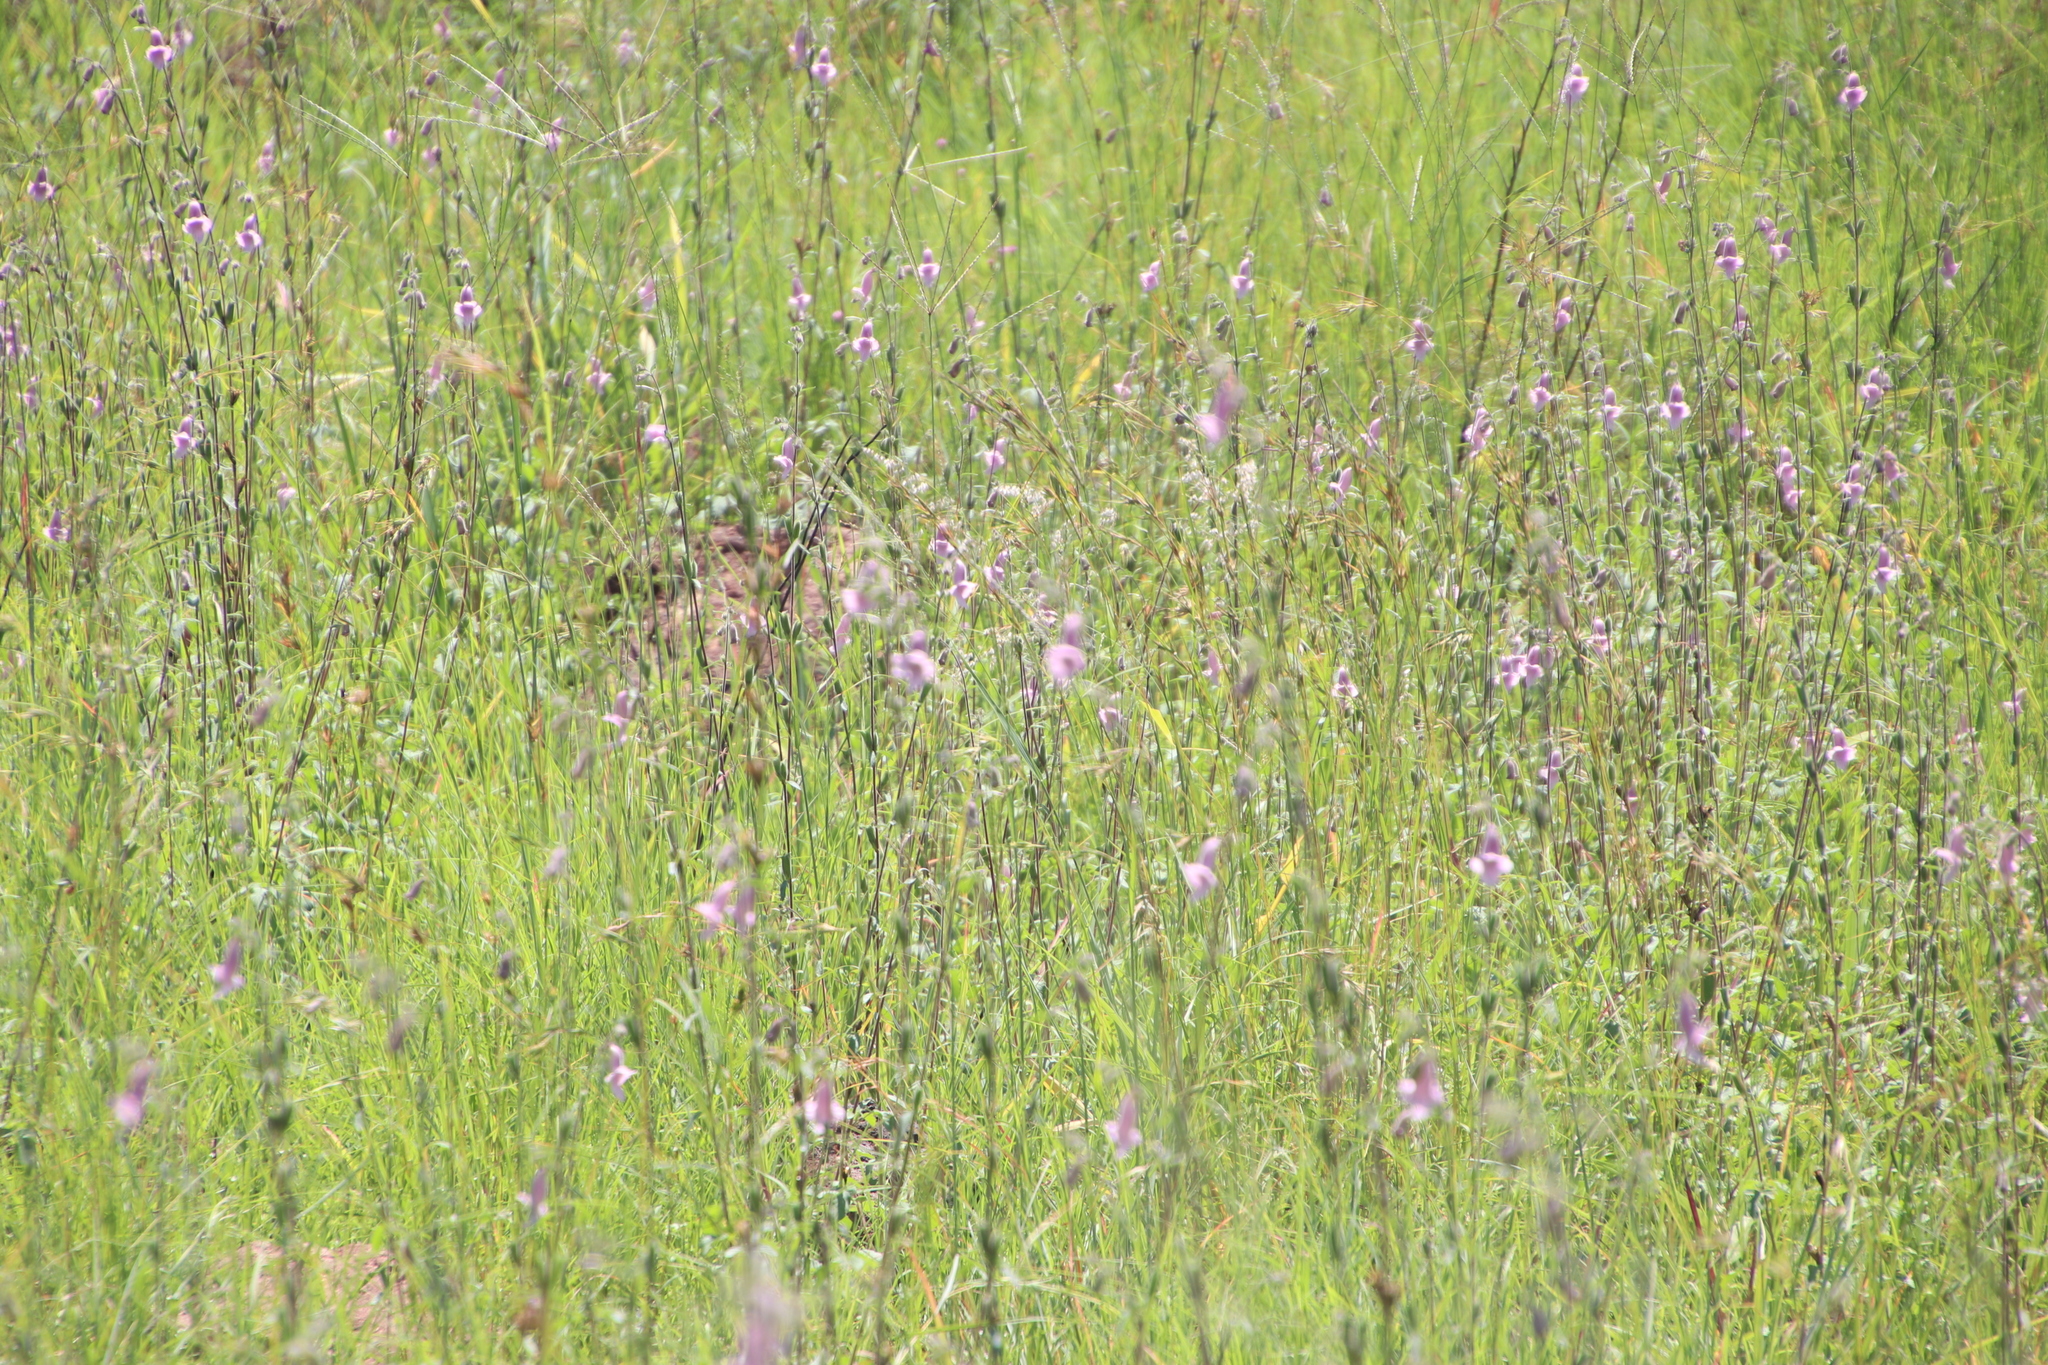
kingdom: Plantae
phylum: Tracheophyta
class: Magnoliopsida
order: Lamiales
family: Pedaliaceae
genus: Sesamum
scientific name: Sesamum trilobum
